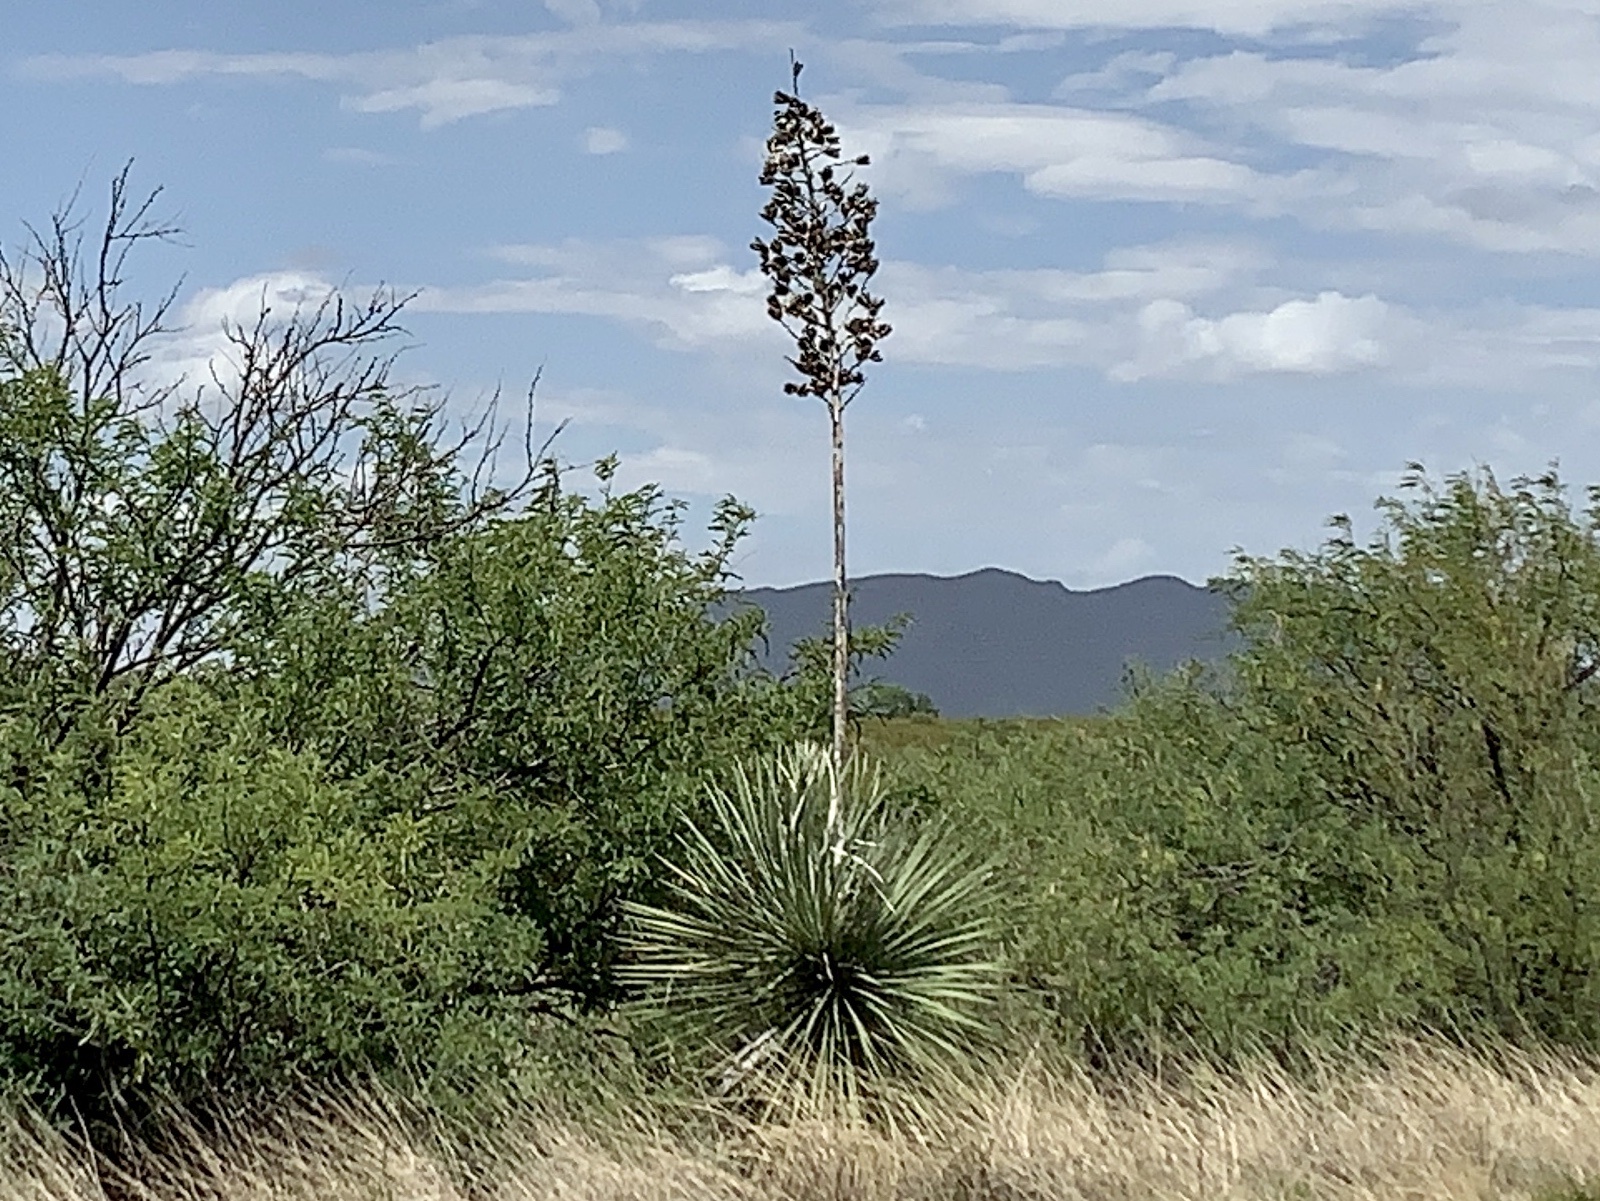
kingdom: Plantae
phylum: Tracheophyta
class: Liliopsida
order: Asparagales
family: Asparagaceae
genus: Yucca
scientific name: Yucca elata
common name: Palmella
